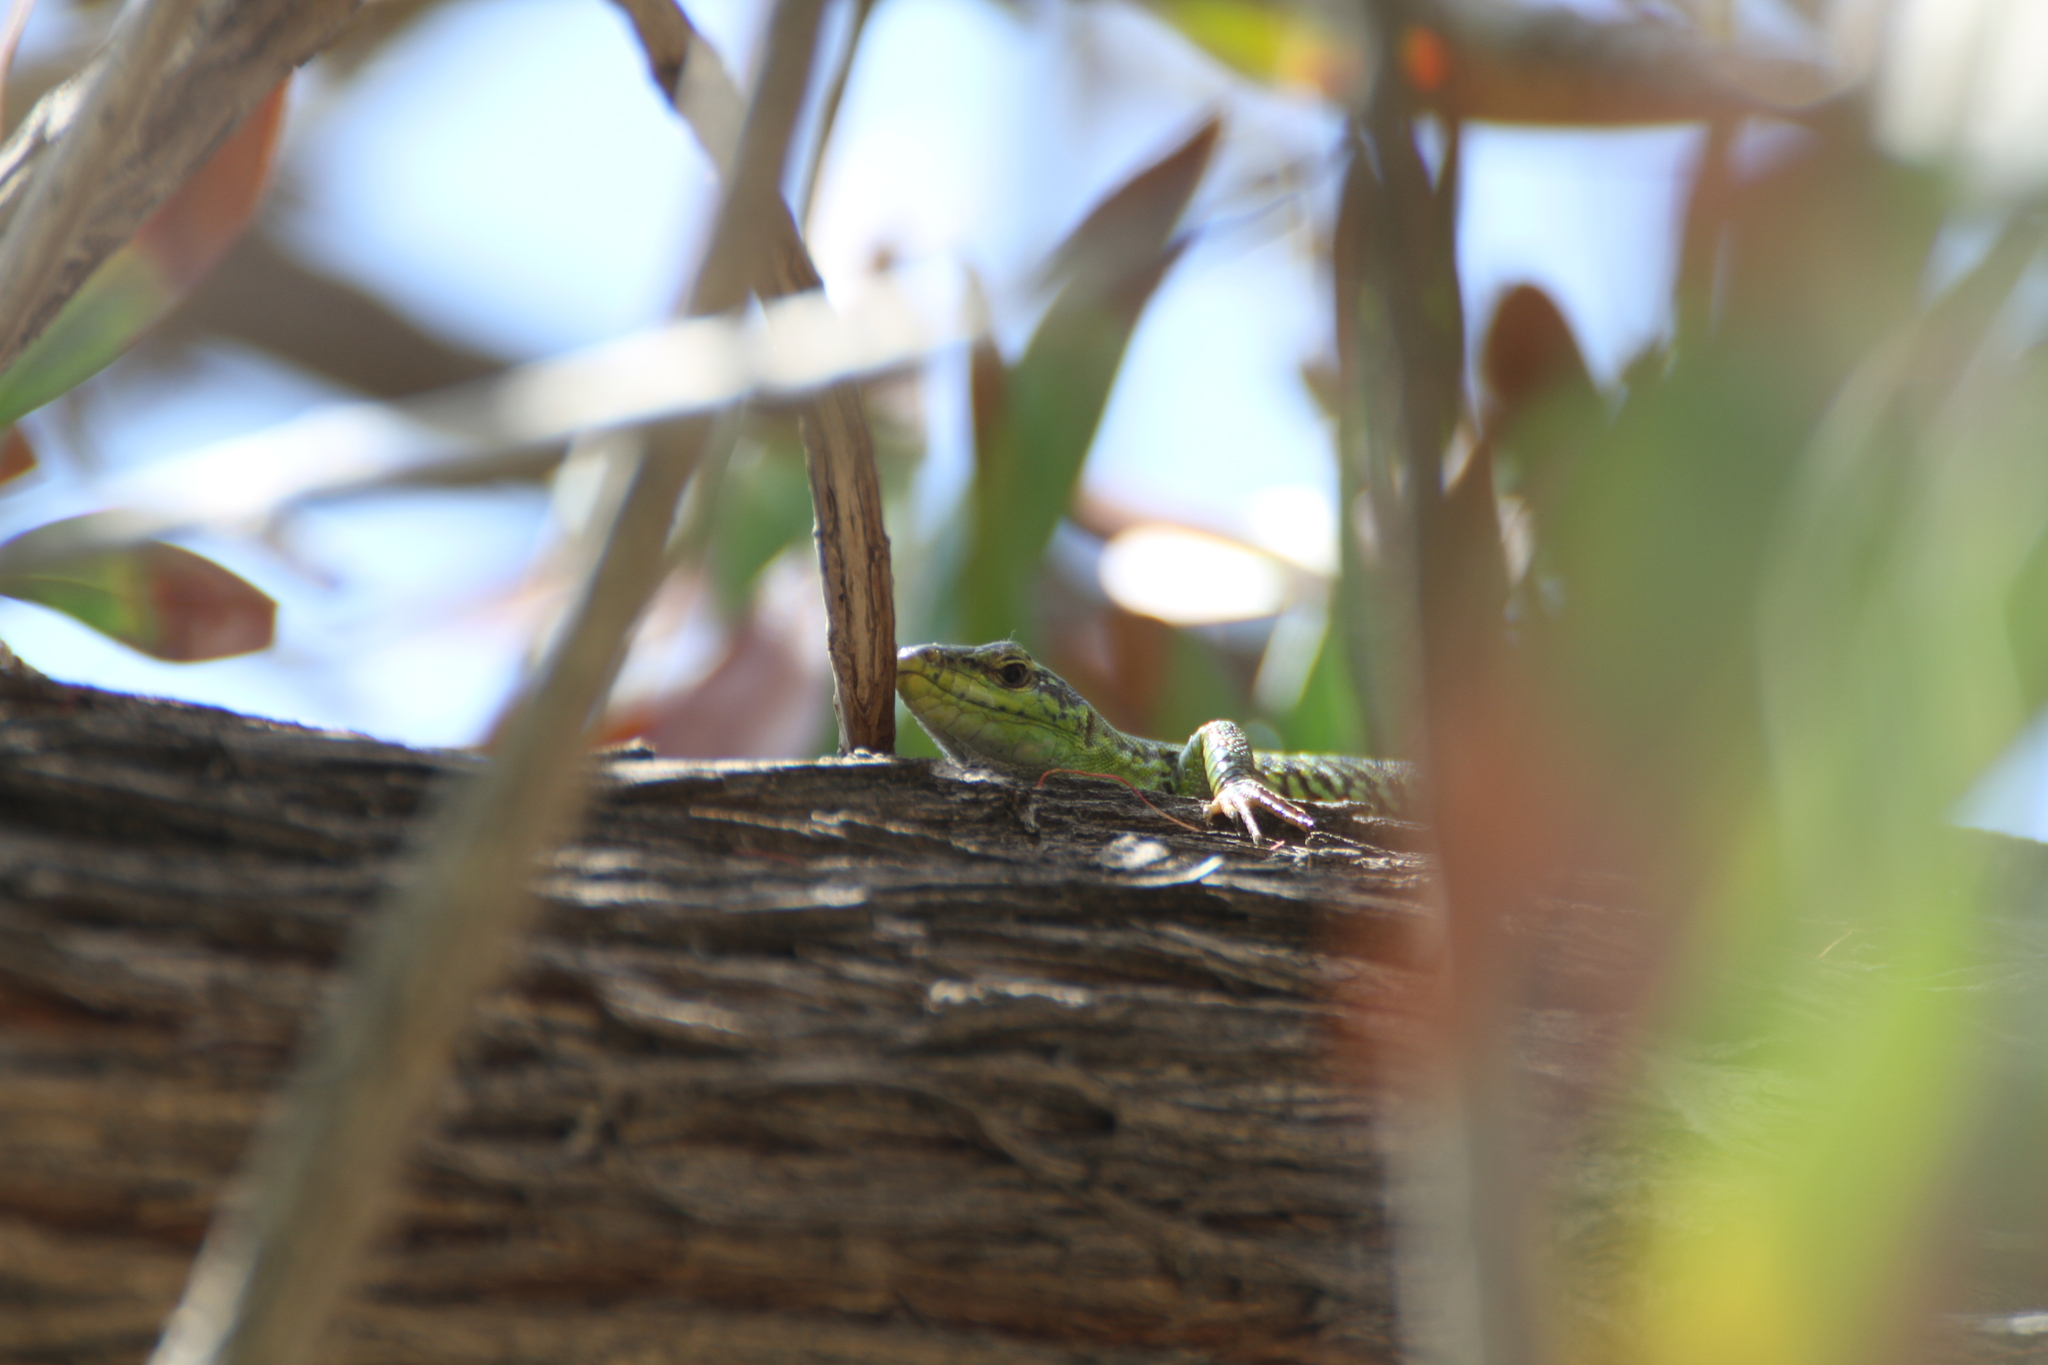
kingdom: Animalia
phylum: Chordata
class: Squamata
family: Lacertidae
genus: Podarcis
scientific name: Podarcis siculus
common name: Italian wall lizard
